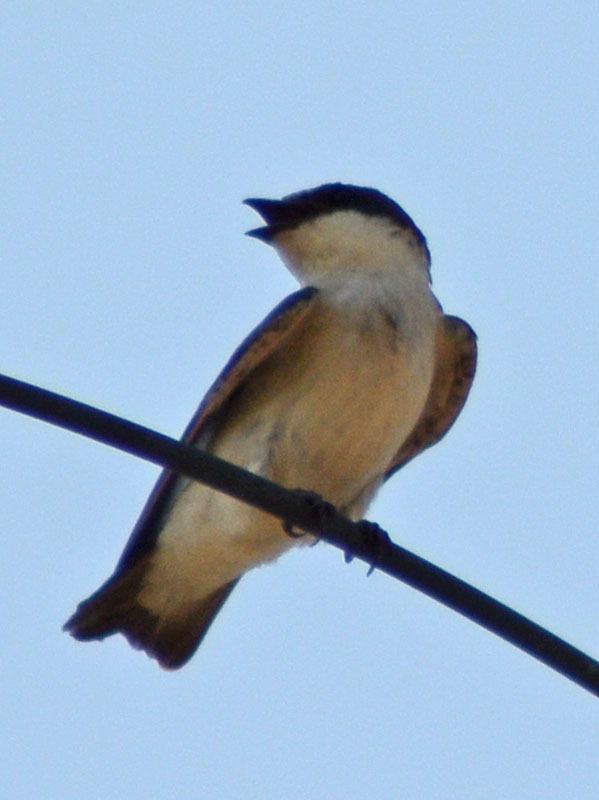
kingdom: Animalia
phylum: Chordata
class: Aves
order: Passeriformes
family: Hirundinidae
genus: Tachycineta
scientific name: Tachycineta bicolor
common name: Tree swallow
